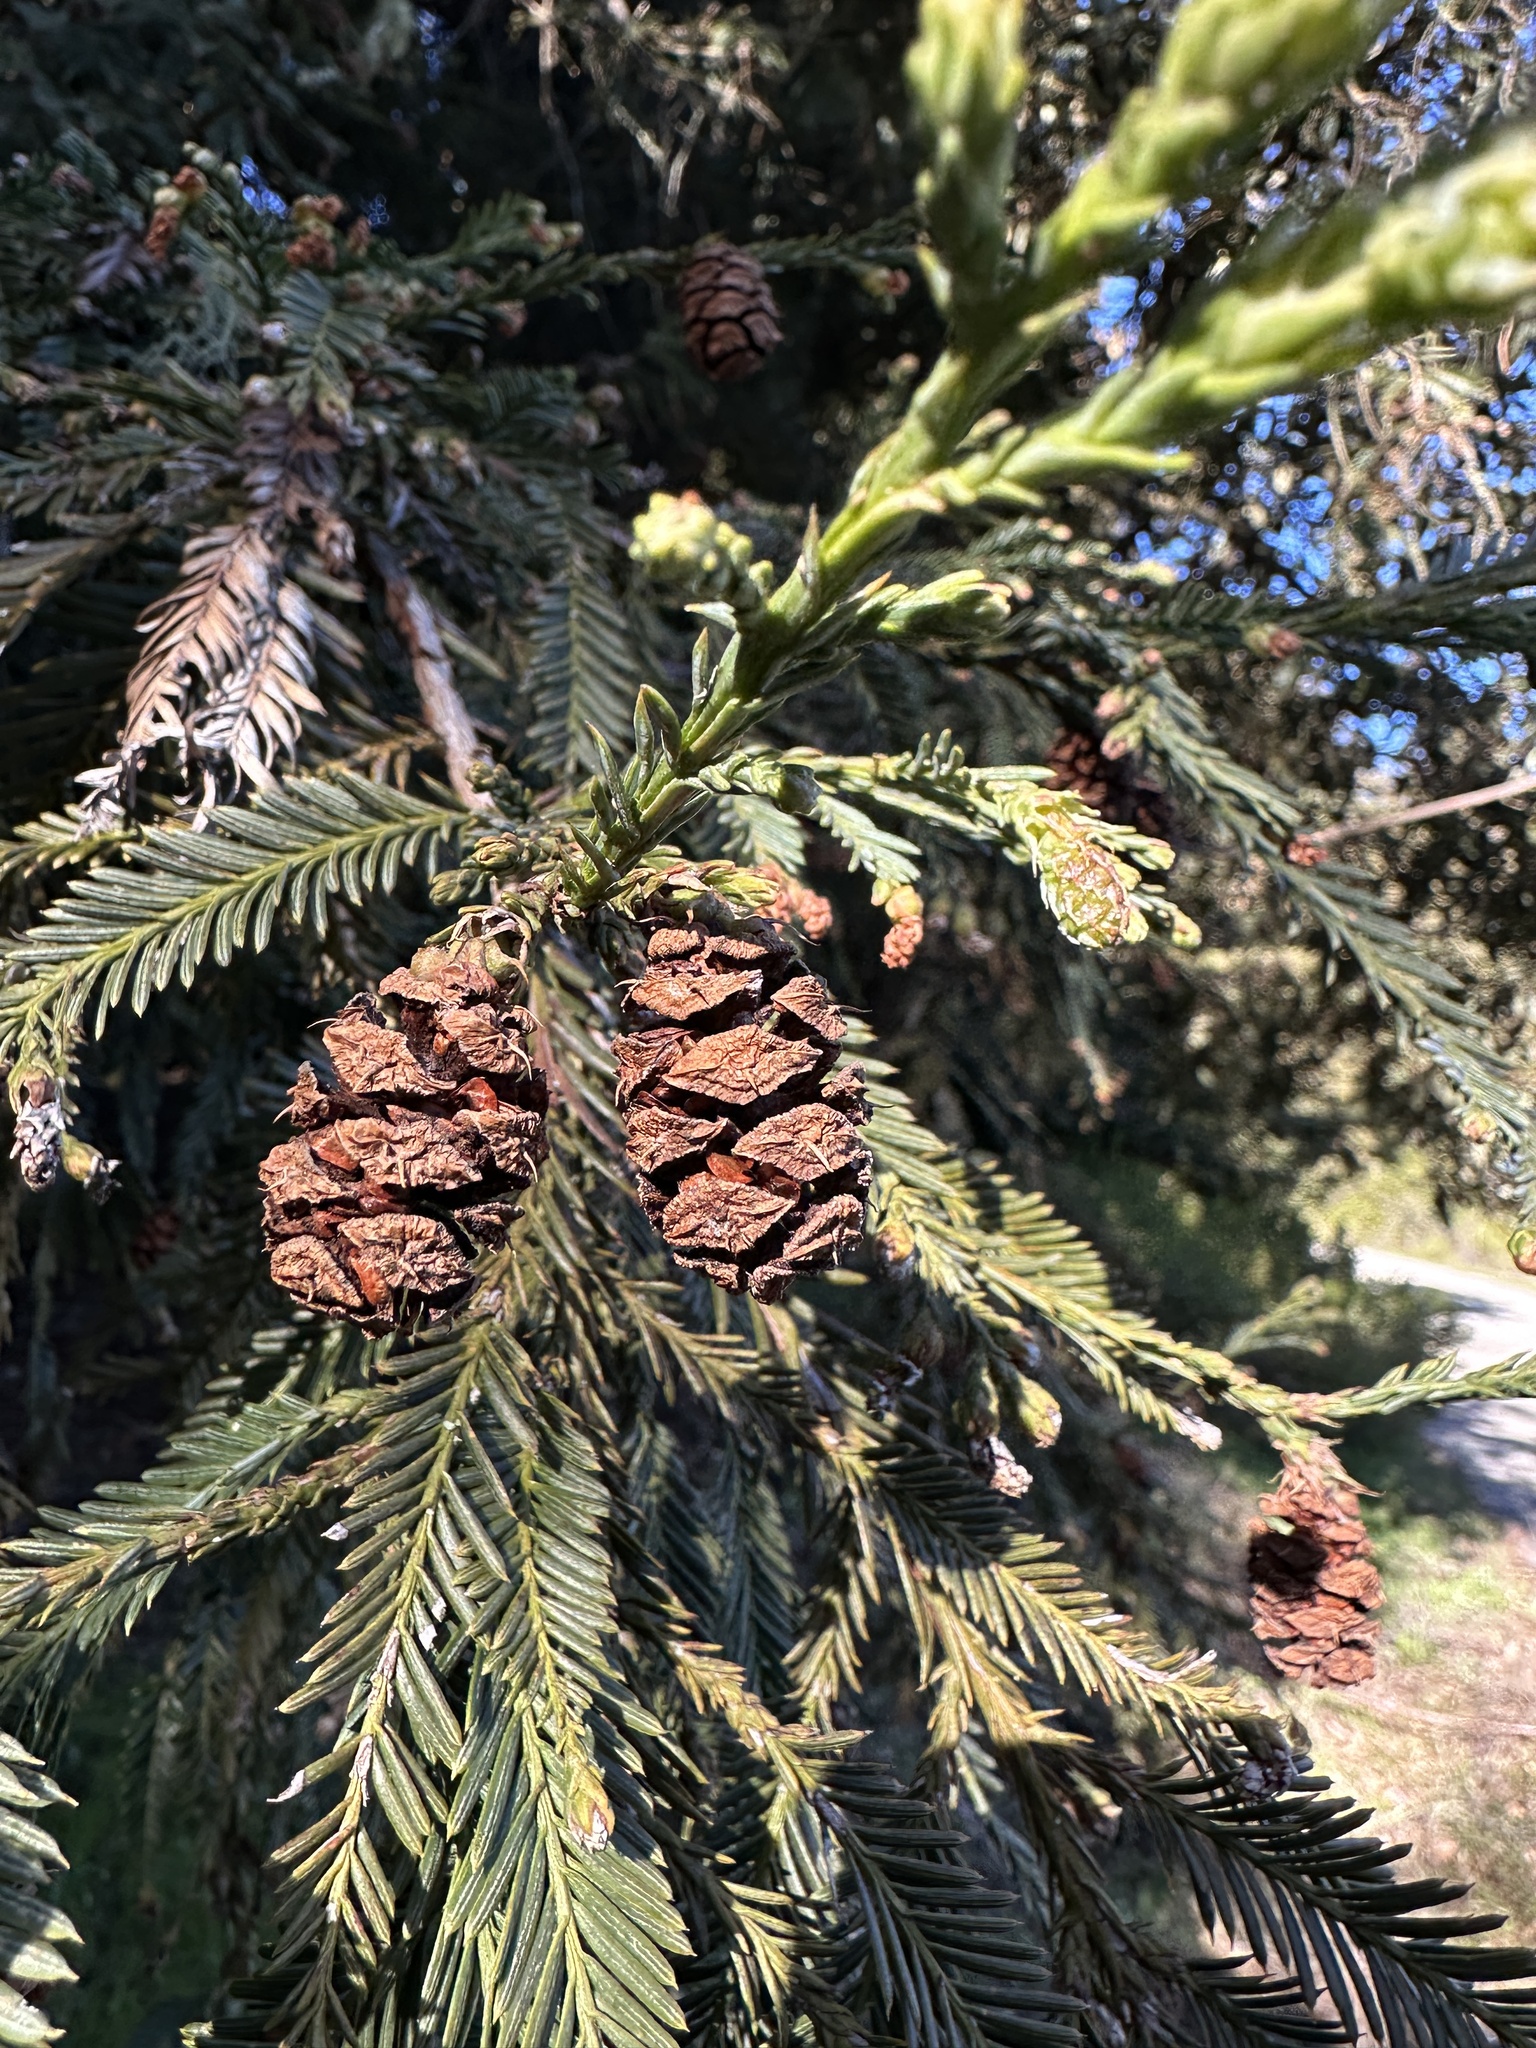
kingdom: Plantae
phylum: Tracheophyta
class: Pinopsida
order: Pinales
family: Cupressaceae
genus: Sequoia
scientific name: Sequoia sempervirens
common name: Coast redwood
